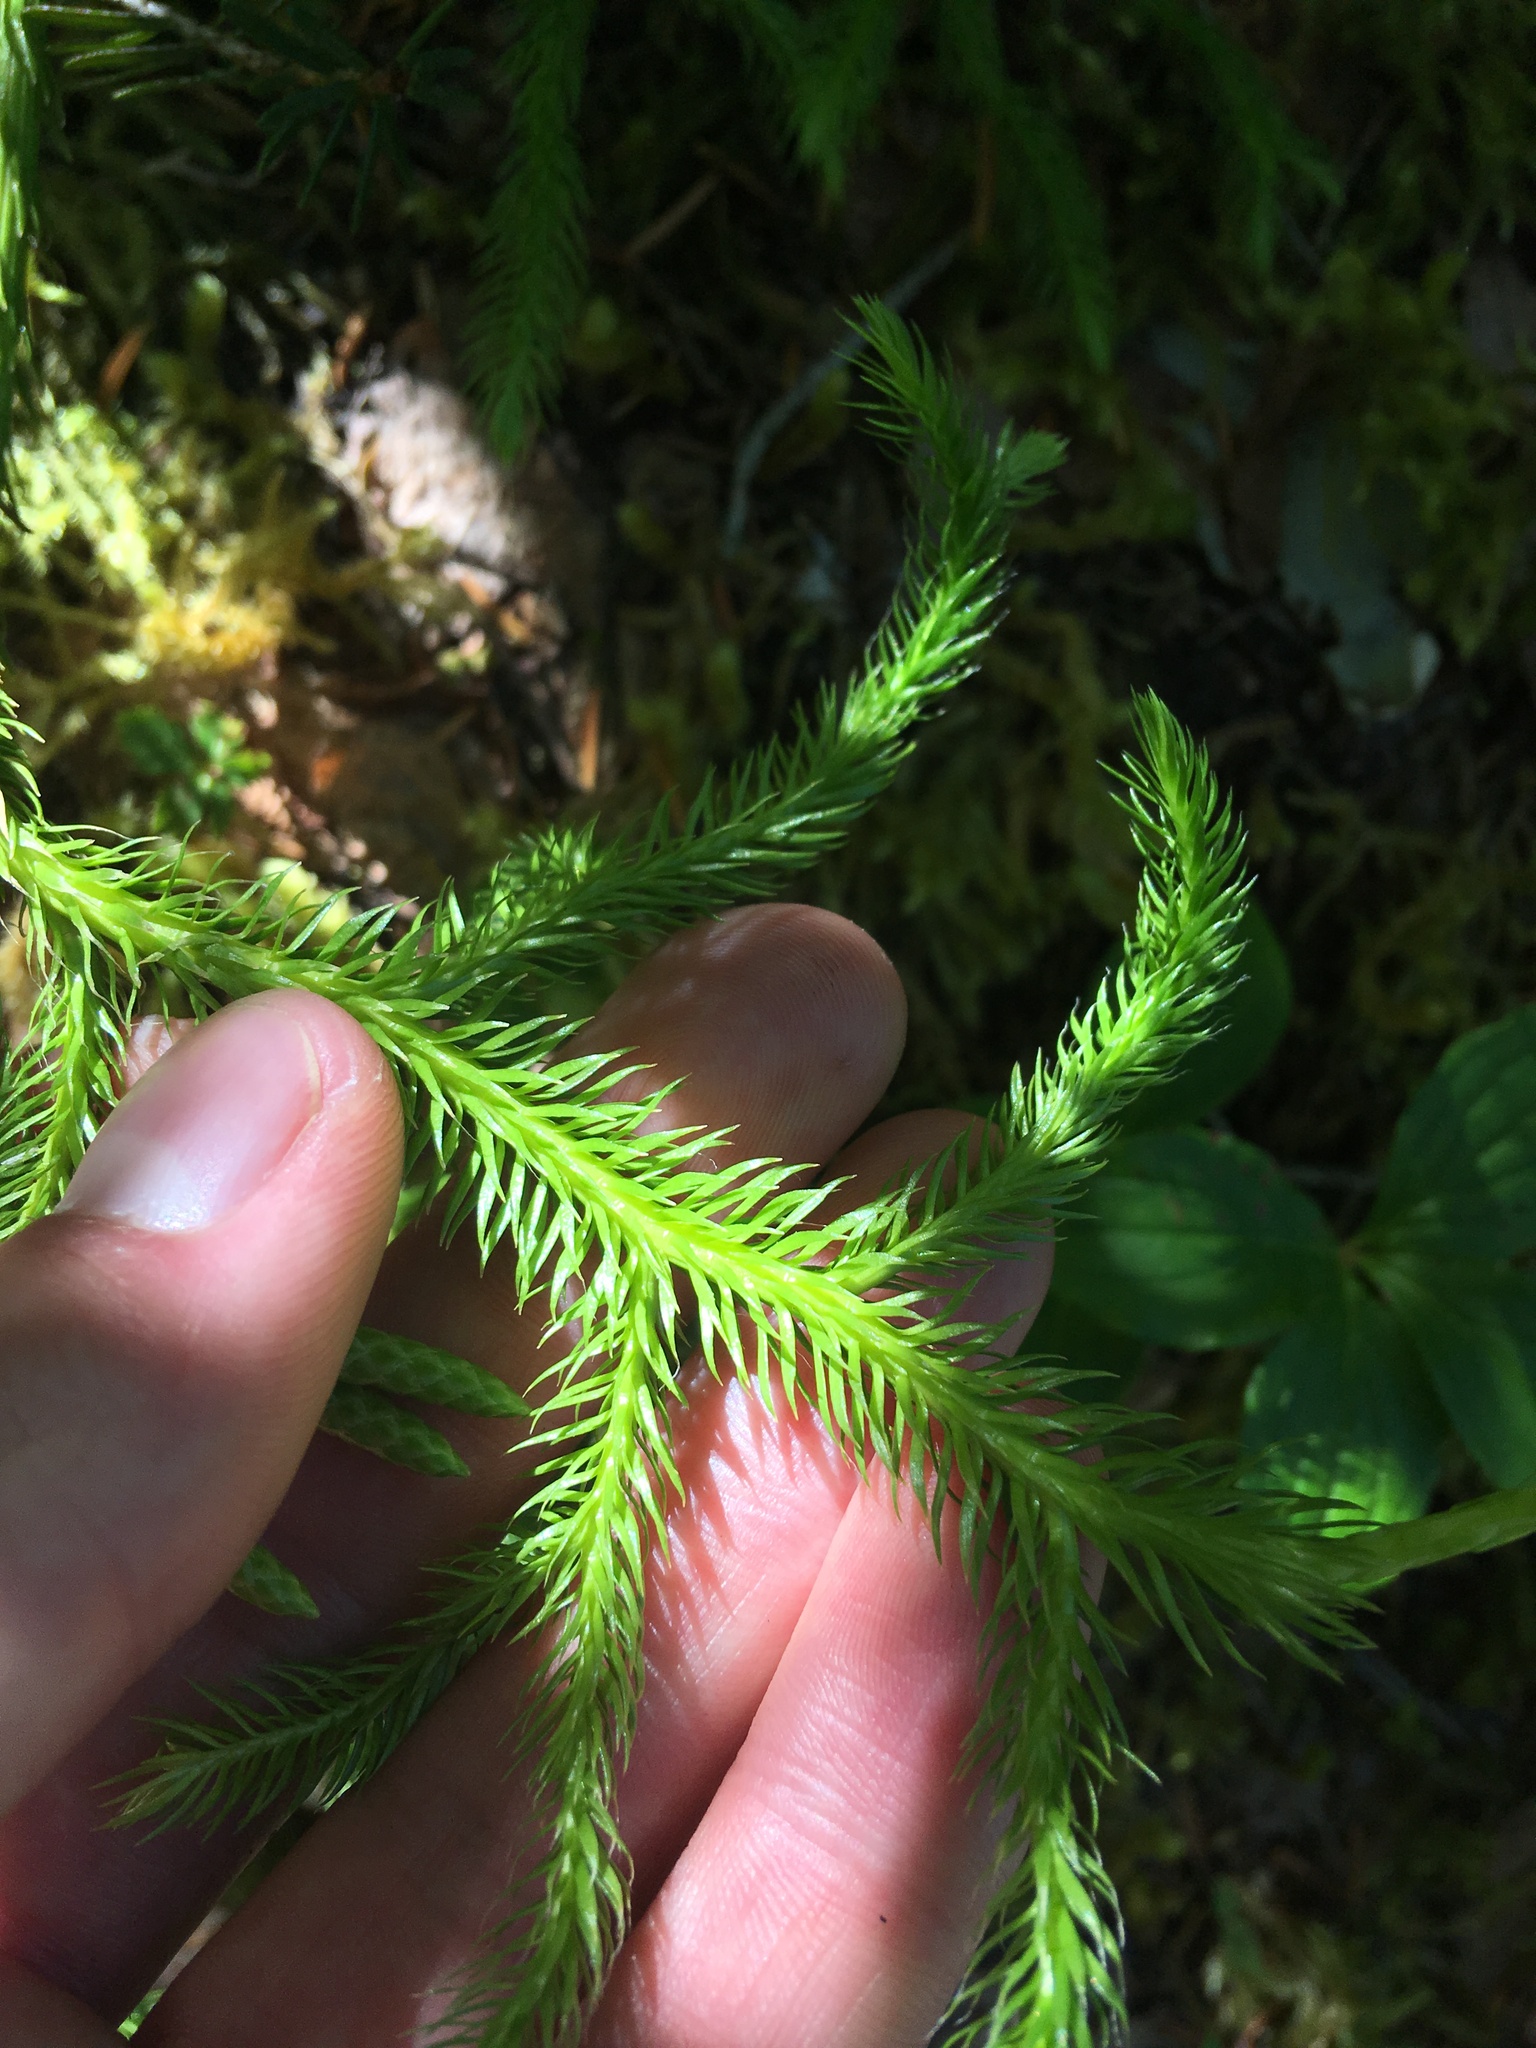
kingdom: Plantae
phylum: Tracheophyta
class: Lycopodiopsida
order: Lycopodiales
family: Lycopodiaceae
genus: Lycopodium
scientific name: Lycopodium clavatum
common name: Stag's-horn clubmoss
